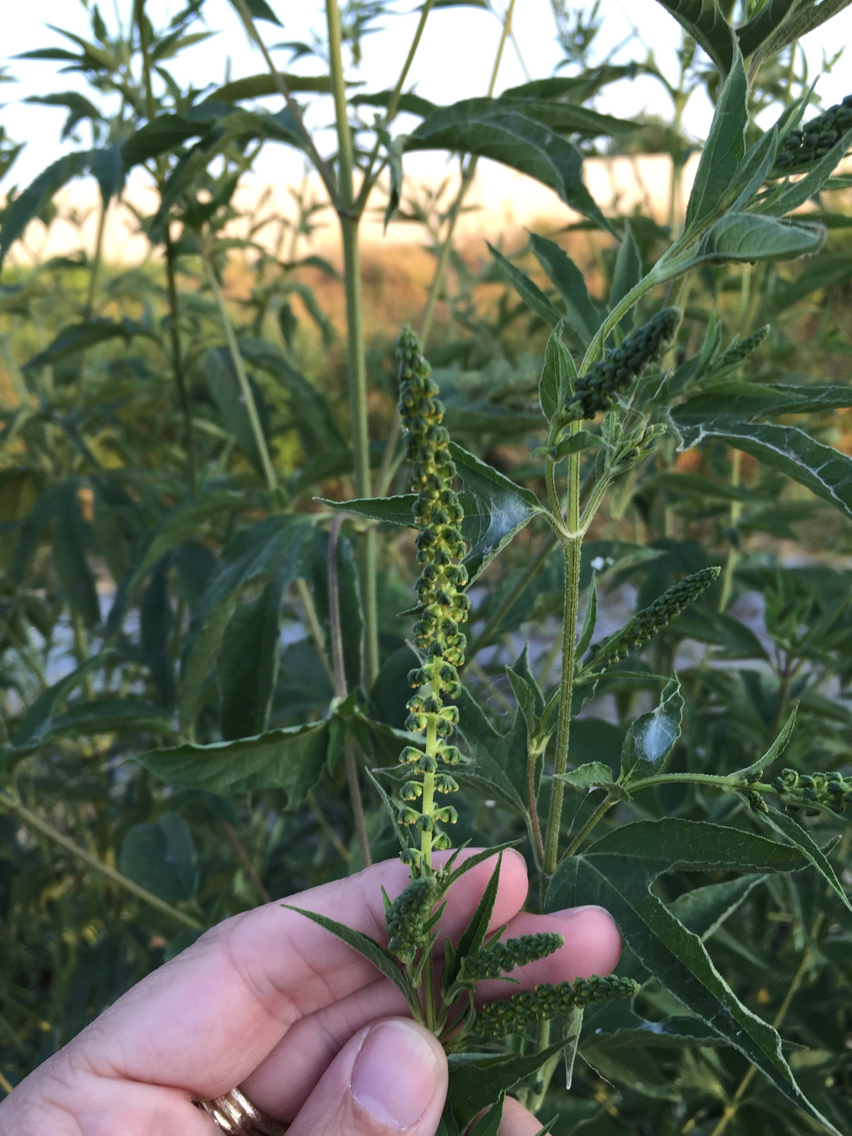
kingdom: Plantae
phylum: Tracheophyta
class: Magnoliopsida
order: Asterales
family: Asteraceae
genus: Ambrosia
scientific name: Ambrosia trifida
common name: Giant ragweed
